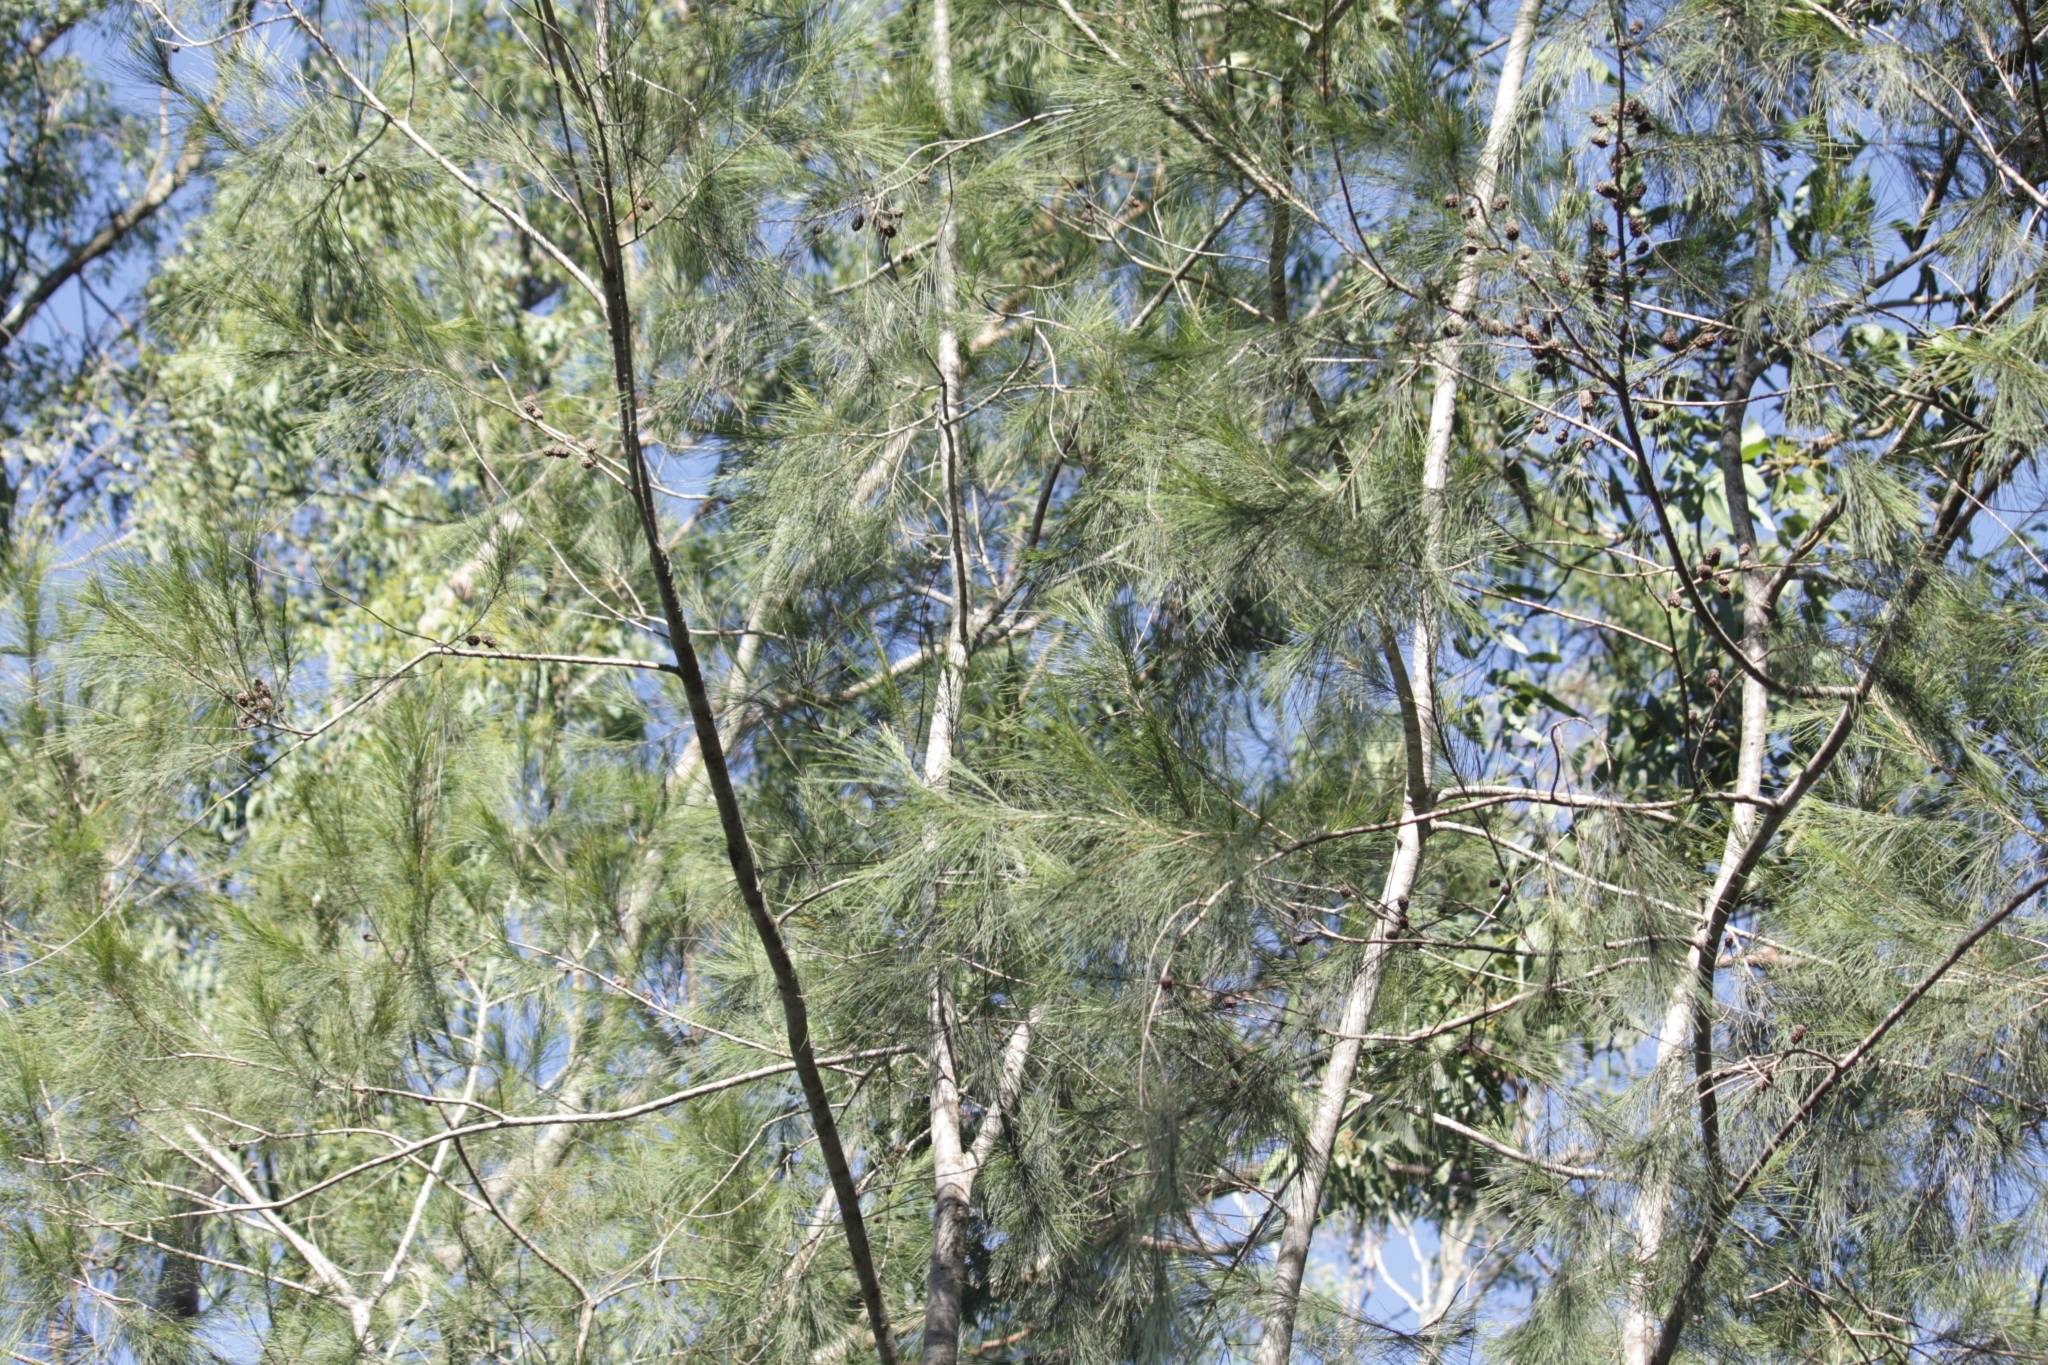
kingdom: Plantae
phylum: Tracheophyta
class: Magnoliopsida
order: Fagales
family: Casuarinaceae
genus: Casuarina
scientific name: Casuarina equisetifolia
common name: Beach sheoak
